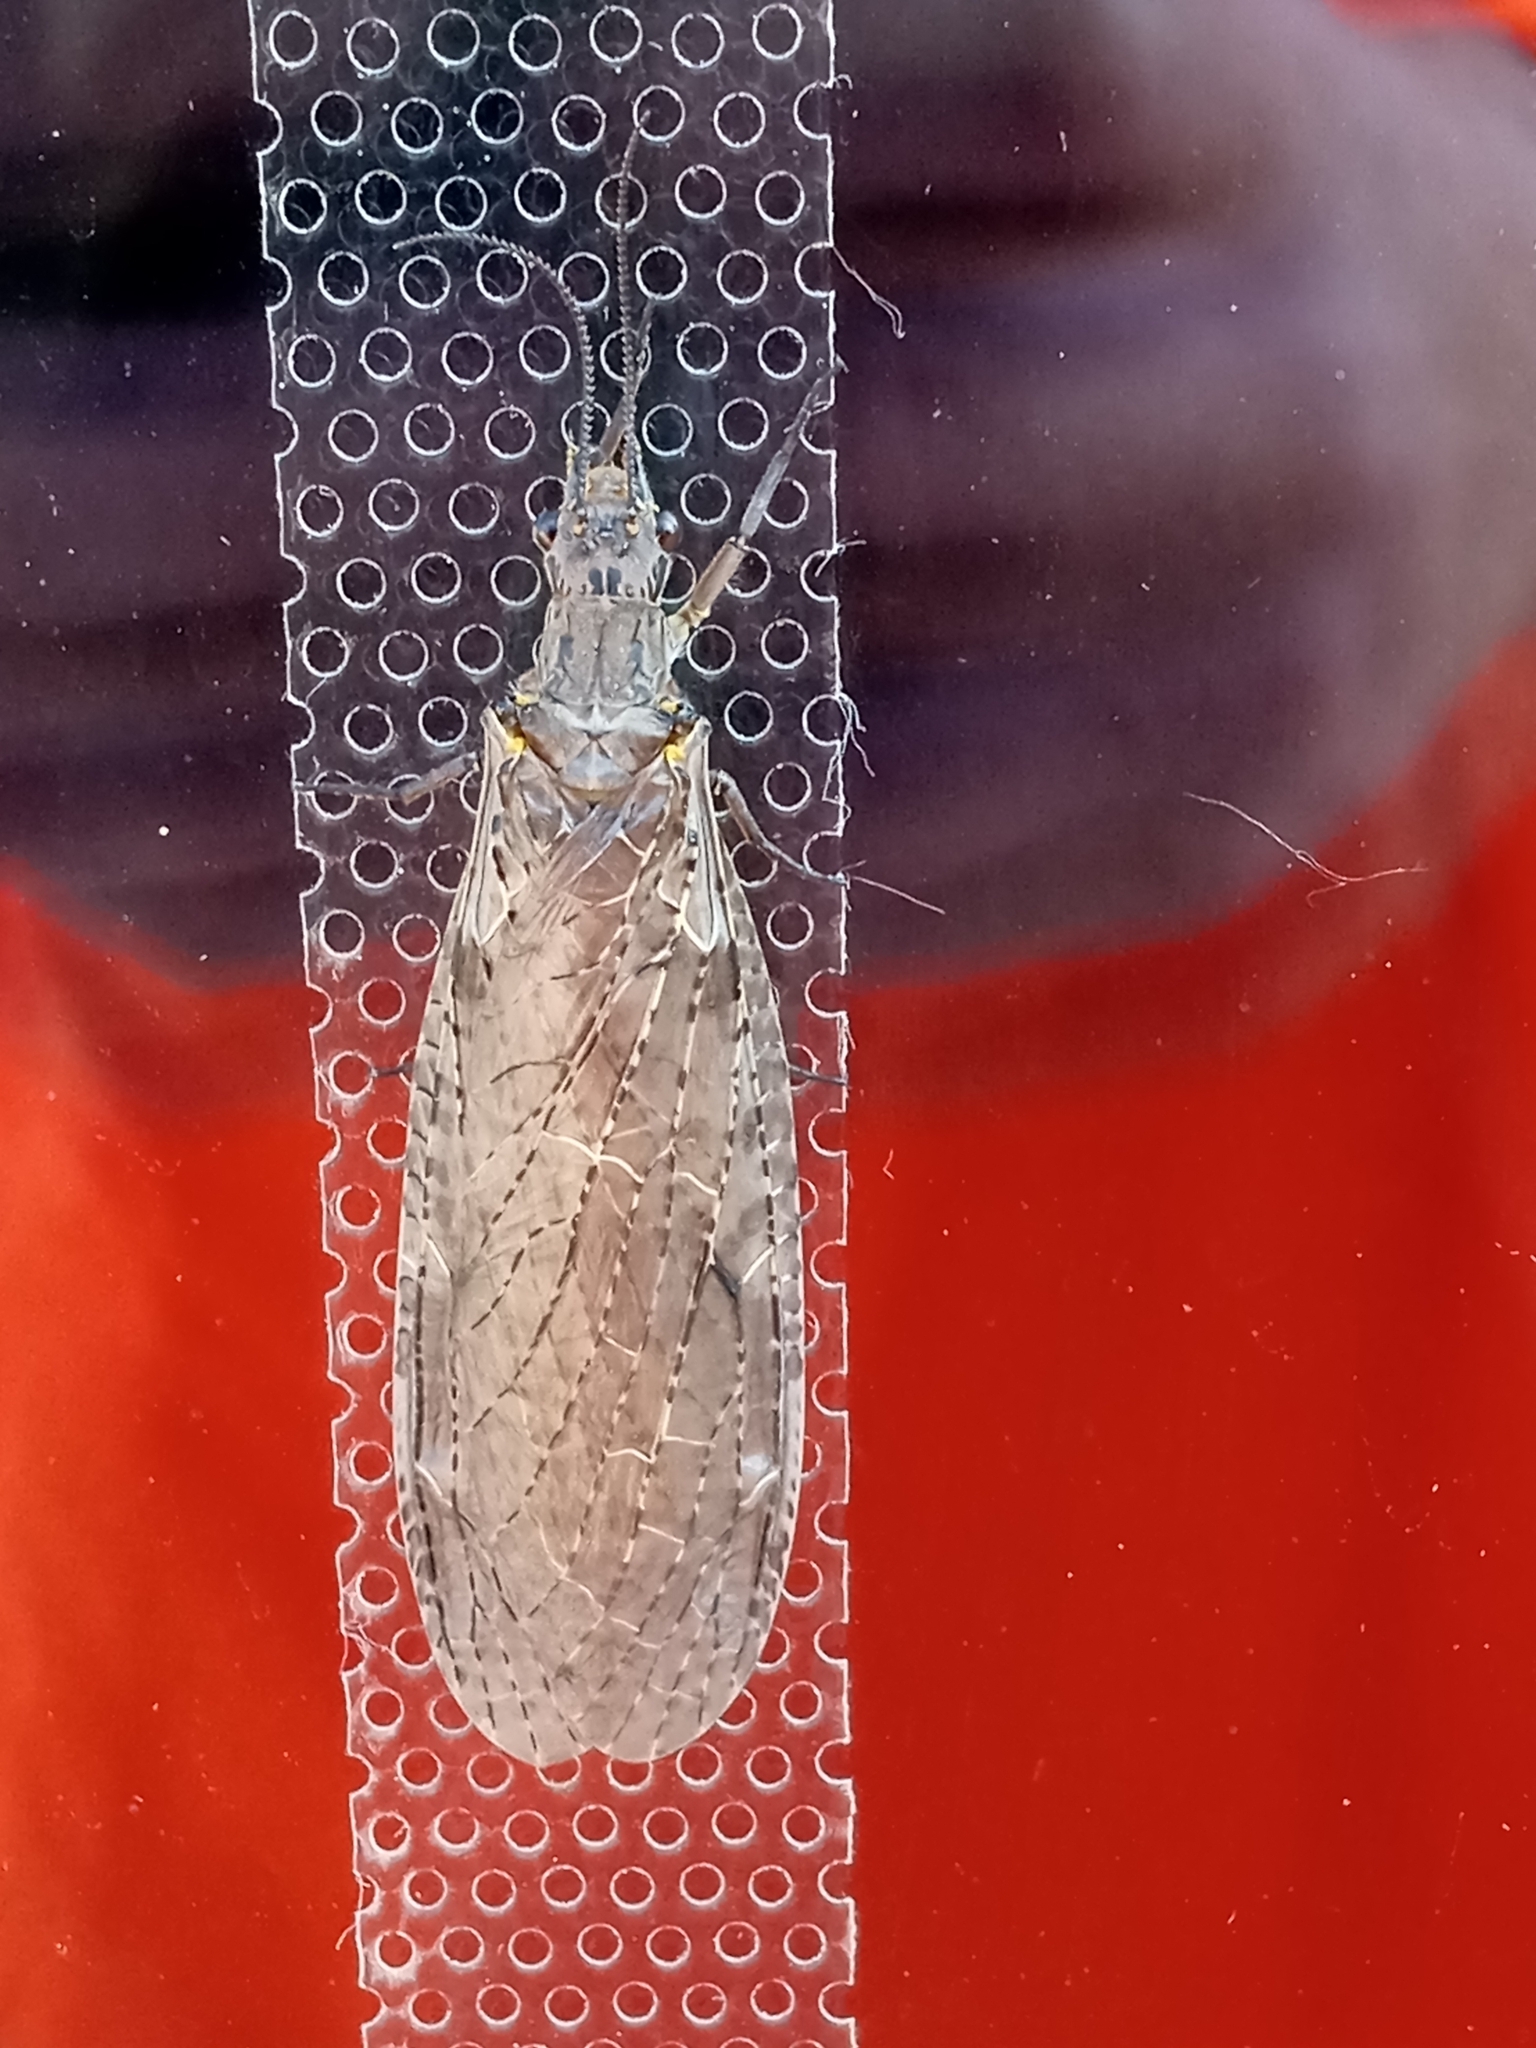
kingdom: Animalia
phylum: Arthropoda
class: Insecta
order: Megaloptera
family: Corydalidae
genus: Chauliodes
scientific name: Chauliodes rastricornis
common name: Spring fishfly
